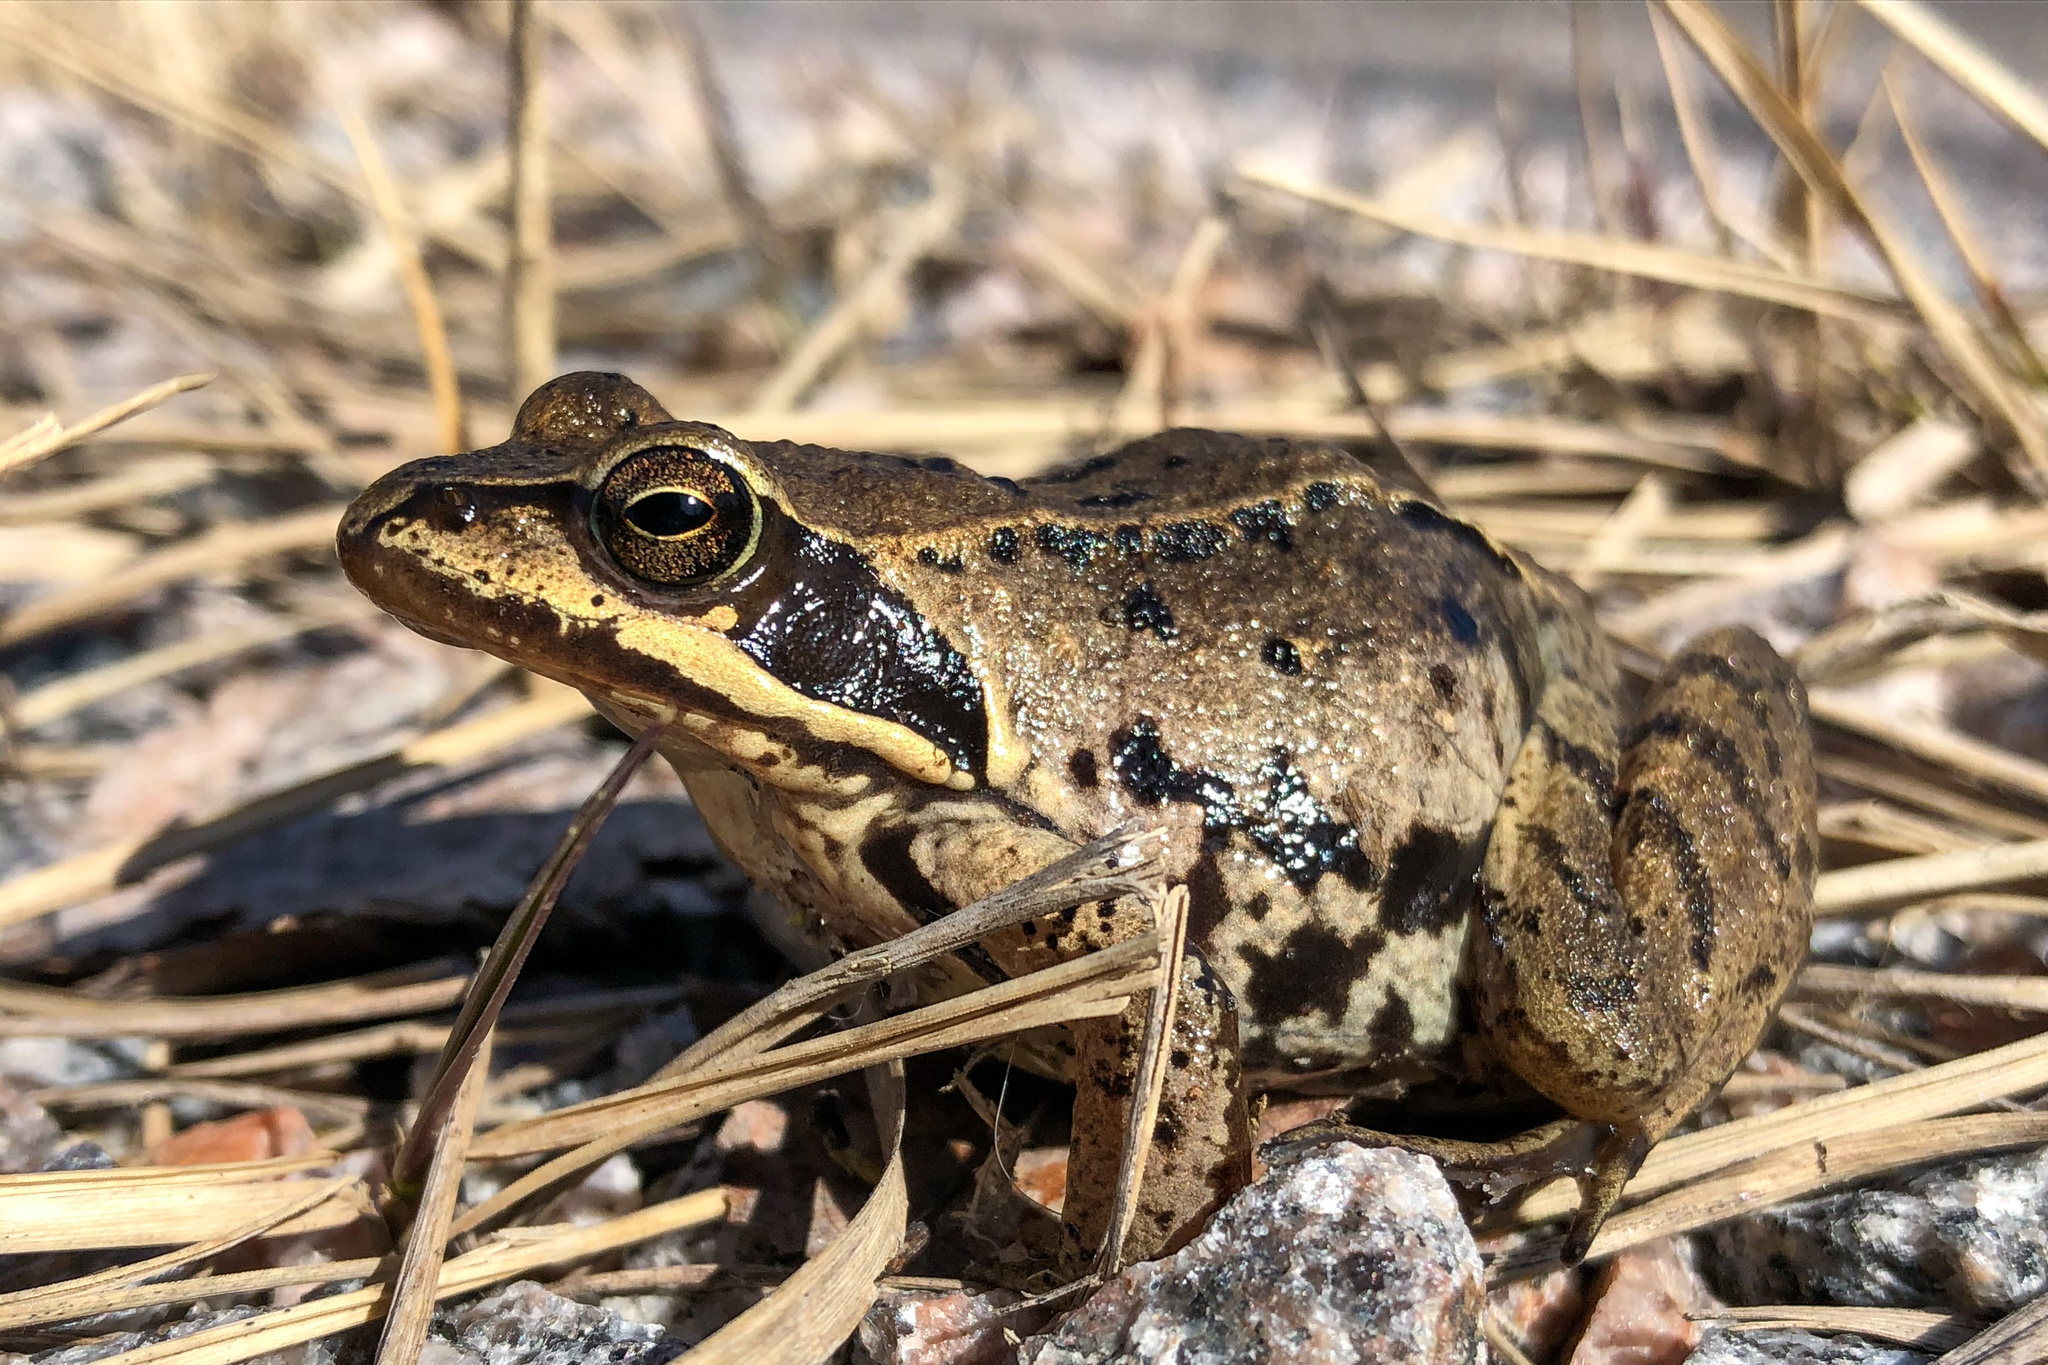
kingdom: Animalia
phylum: Chordata
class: Amphibia
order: Anura
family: Ranidae
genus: Rana
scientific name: Rana temporaria
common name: Common frog
